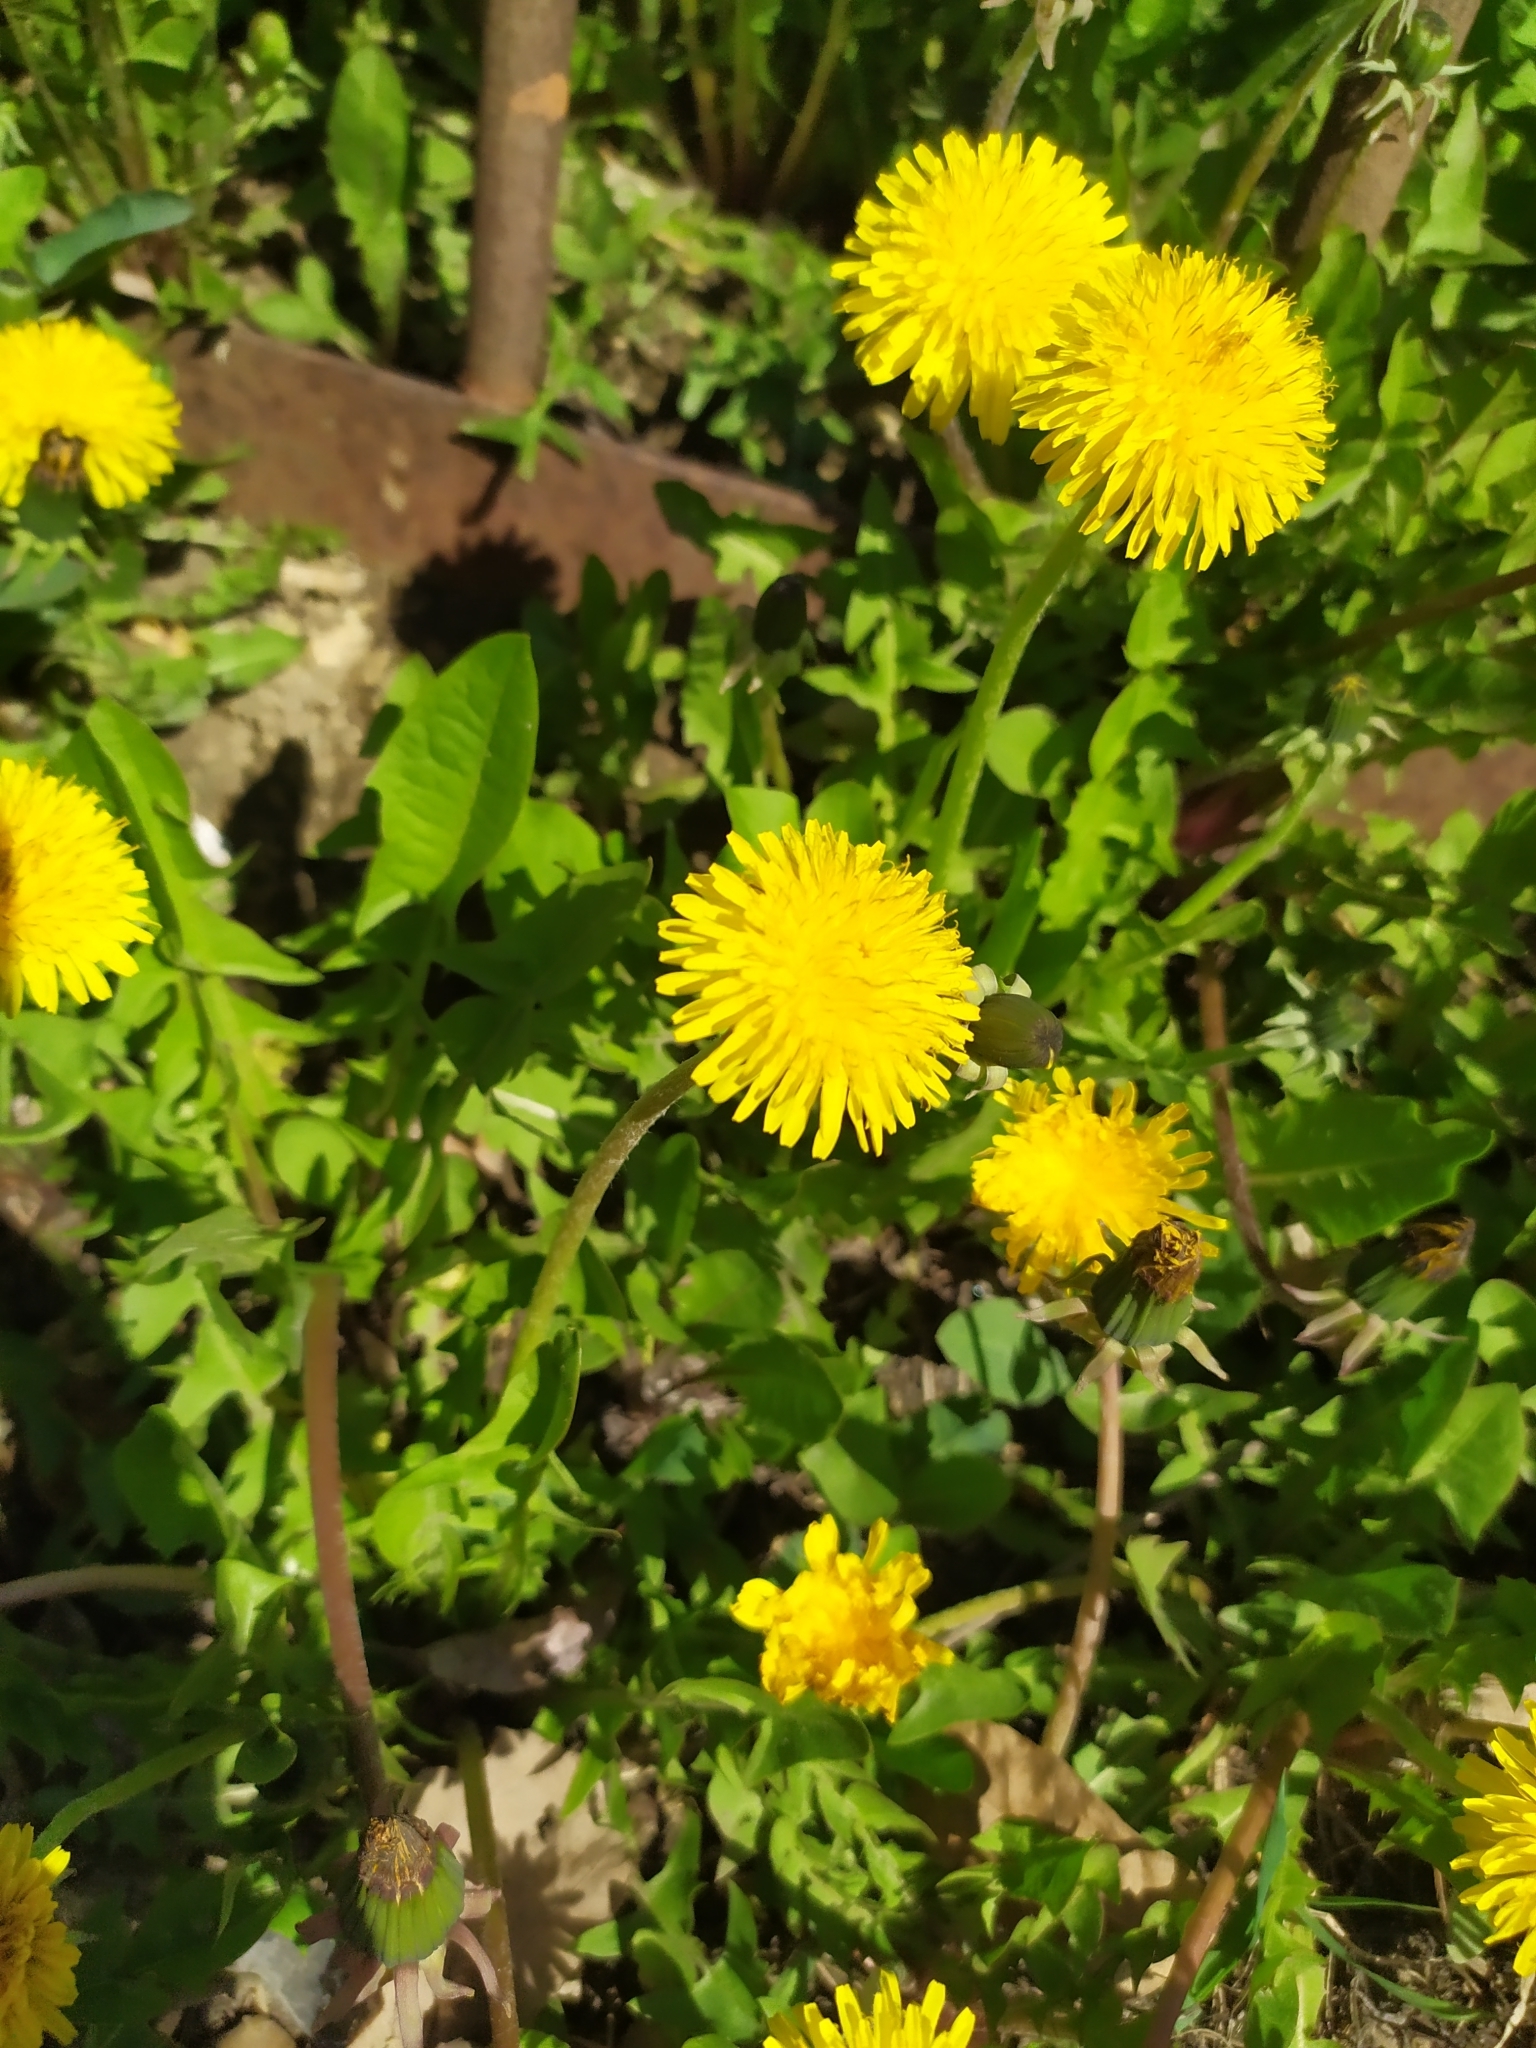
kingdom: Plantae
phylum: Tracheophyta
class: Magnoliopsida
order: Asterales
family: Asteraceae
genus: Taraxacum
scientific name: Taraxacum officinale
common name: Common dandelion
